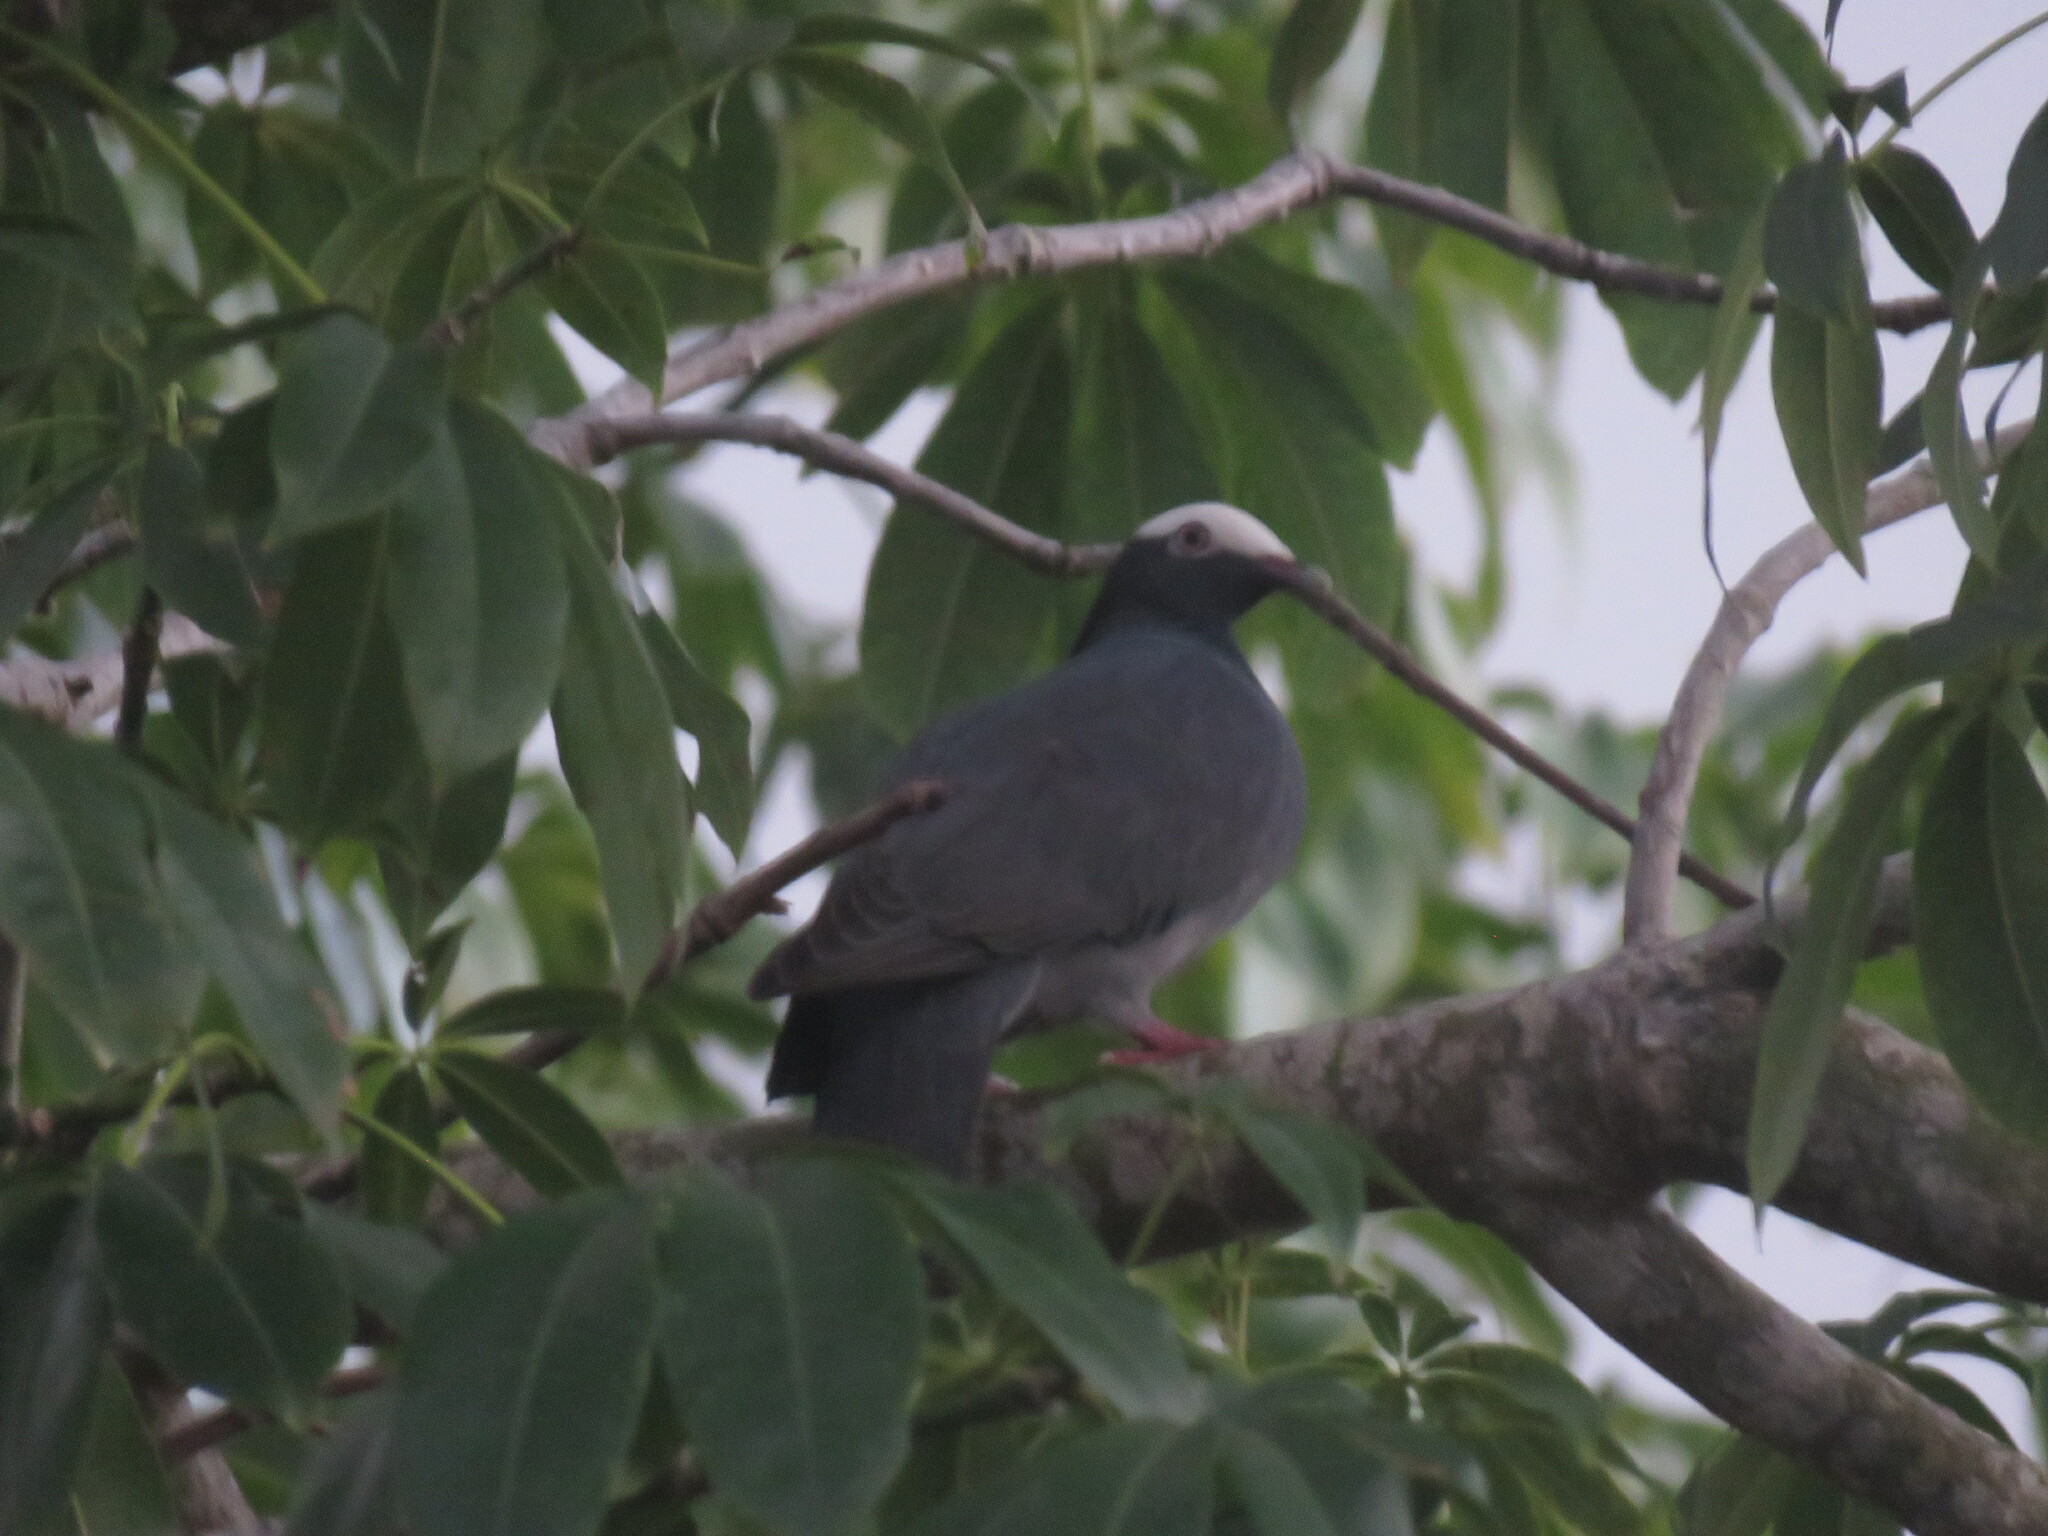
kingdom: Animalia
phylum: Chordata
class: Aves
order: Columbiformes
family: Columbidae
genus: Patagioenas
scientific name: Patagioenas leucocephala
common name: White-crowned pigeon
